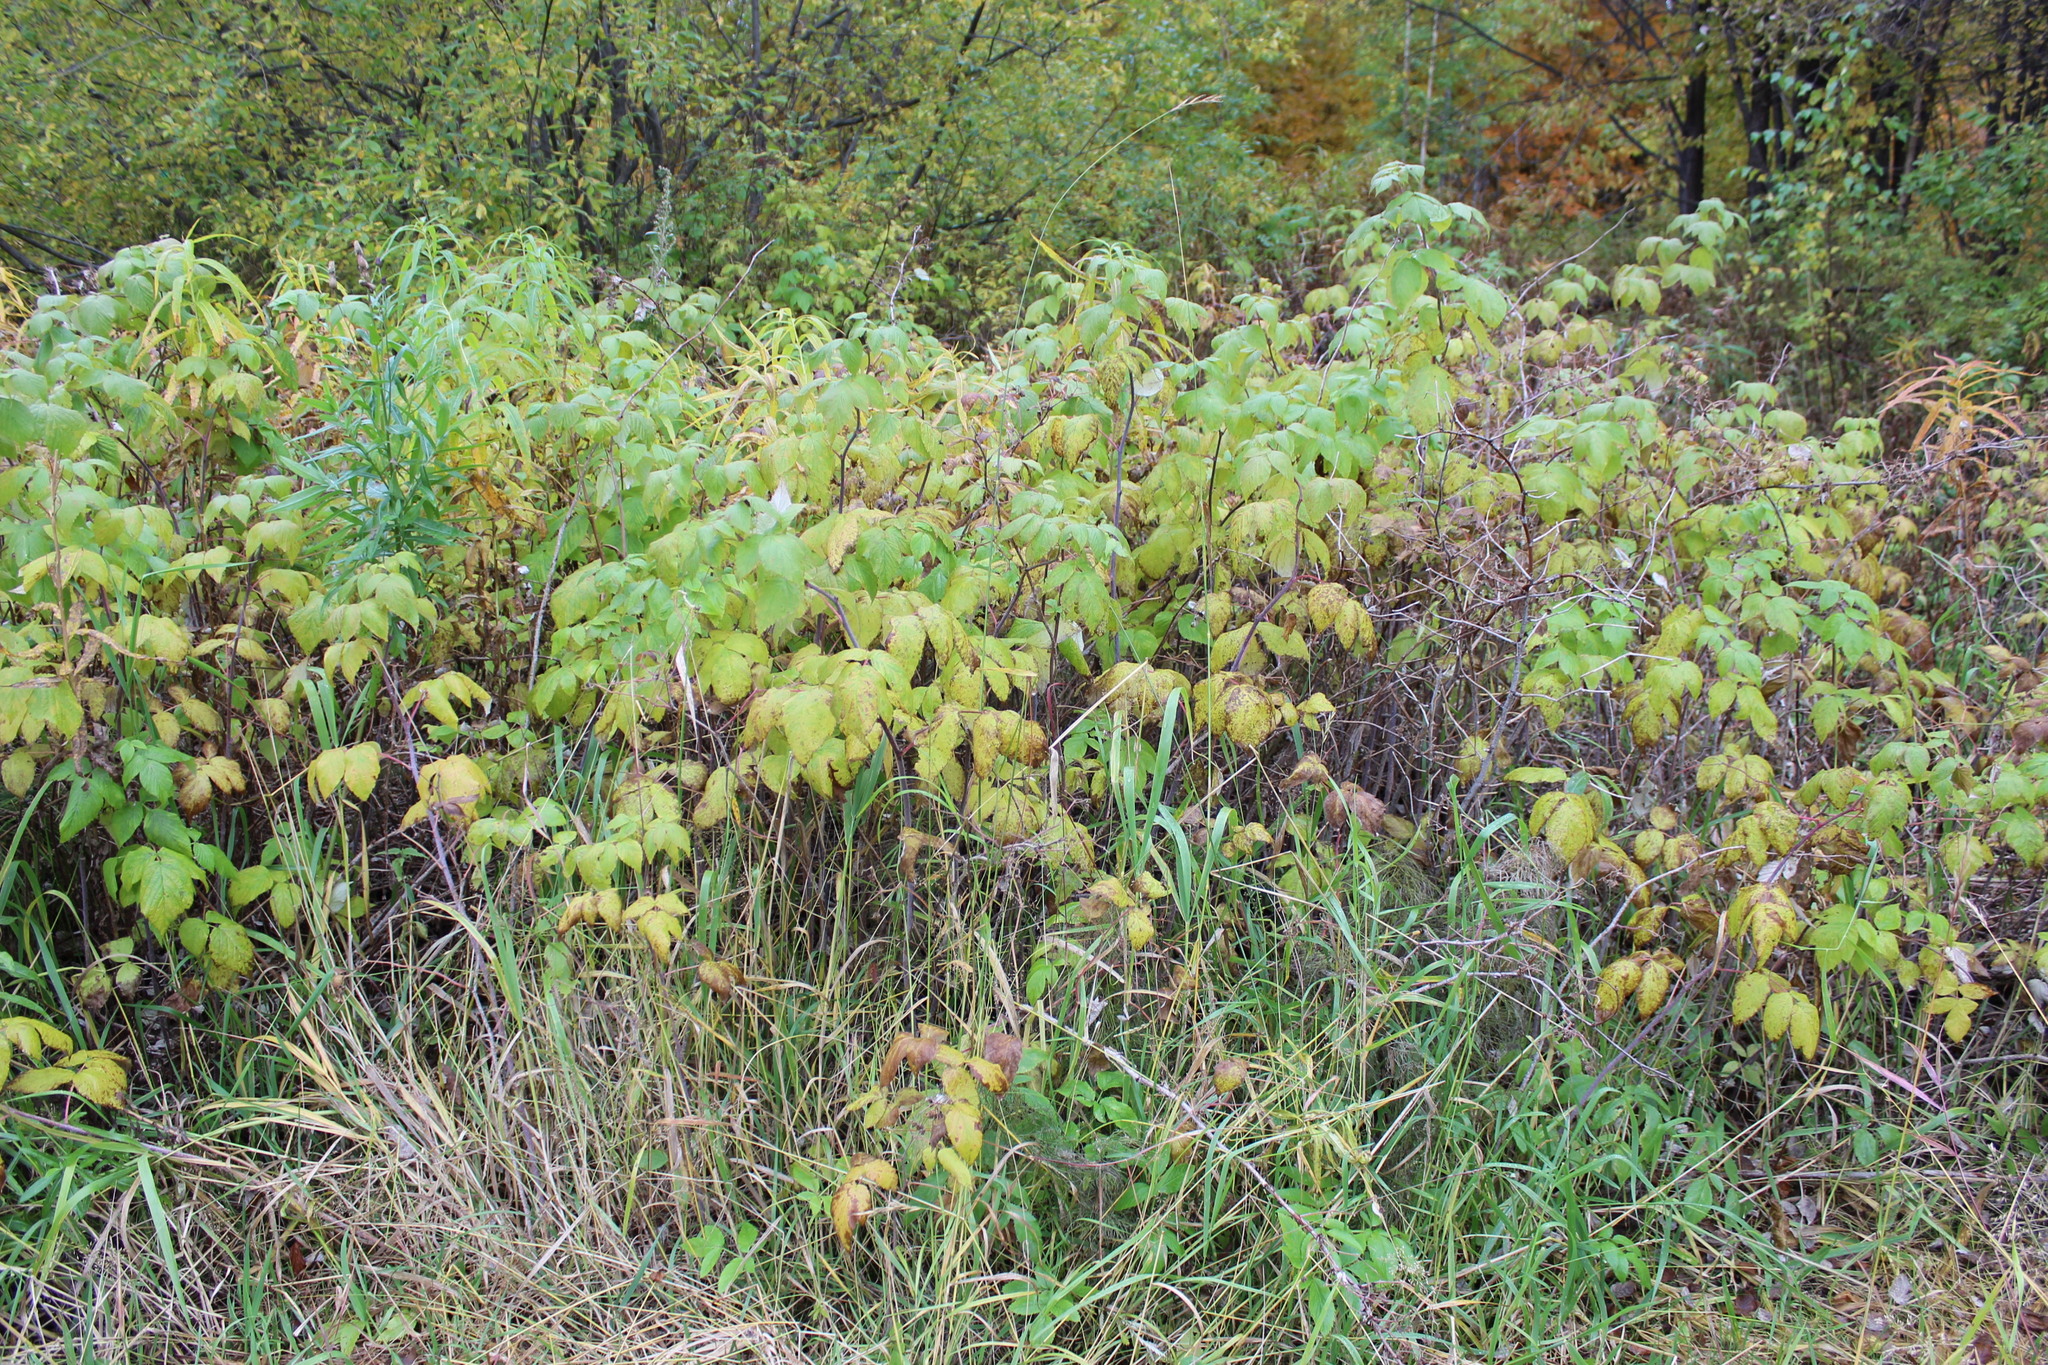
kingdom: Plantae
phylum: Tracheophyta
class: Magnoliopsida
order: Rosales
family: Rosaceae
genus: Rubus
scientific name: Rubus idaeus
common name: Raspberry
